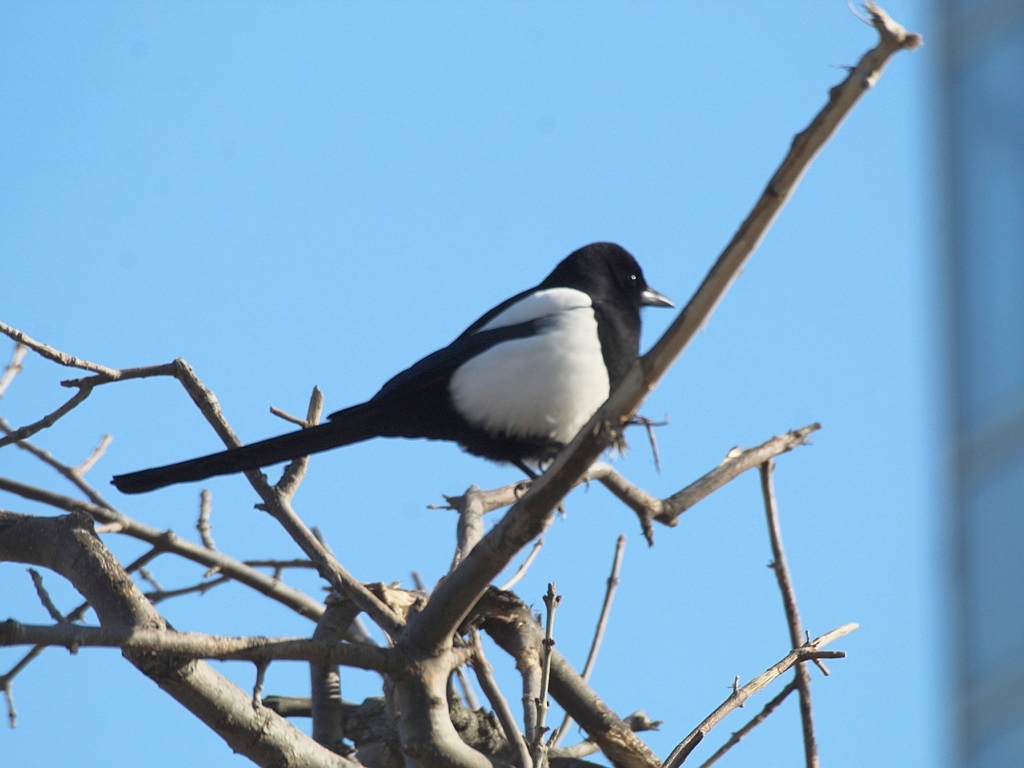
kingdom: Animalia
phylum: Chordata
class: Aves
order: Passeriformes
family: Corvidae
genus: Pica
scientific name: Pica serica
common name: Oriental magpie
